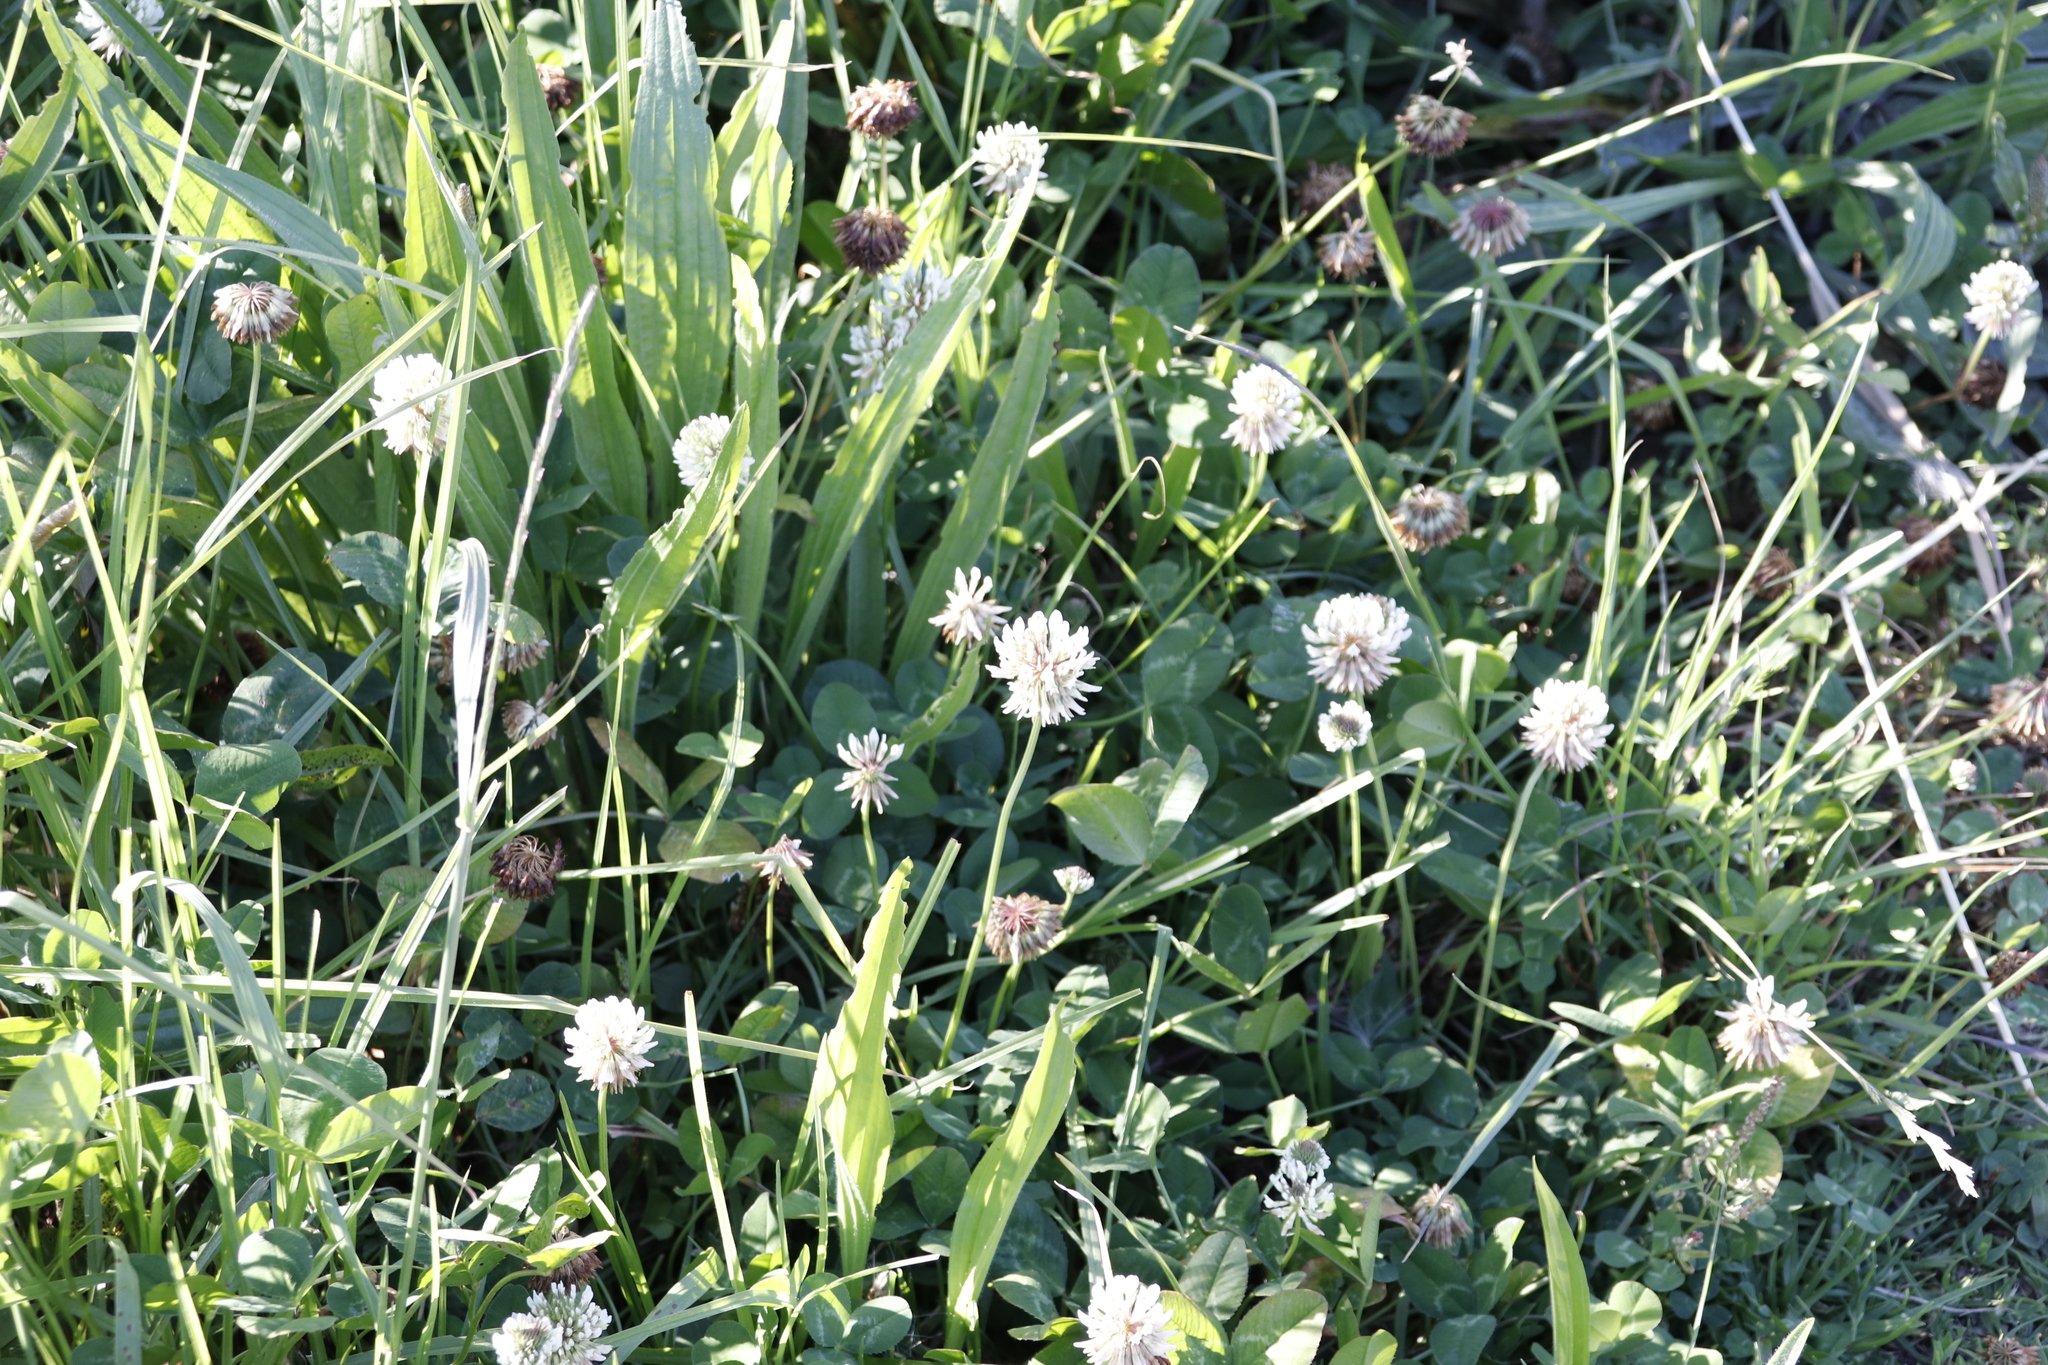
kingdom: Plantae
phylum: Tracheophyta
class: Magnoliopsida
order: Fabales
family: Fabaceae
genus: Trifolium
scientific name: Trifolium repens
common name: White clover
